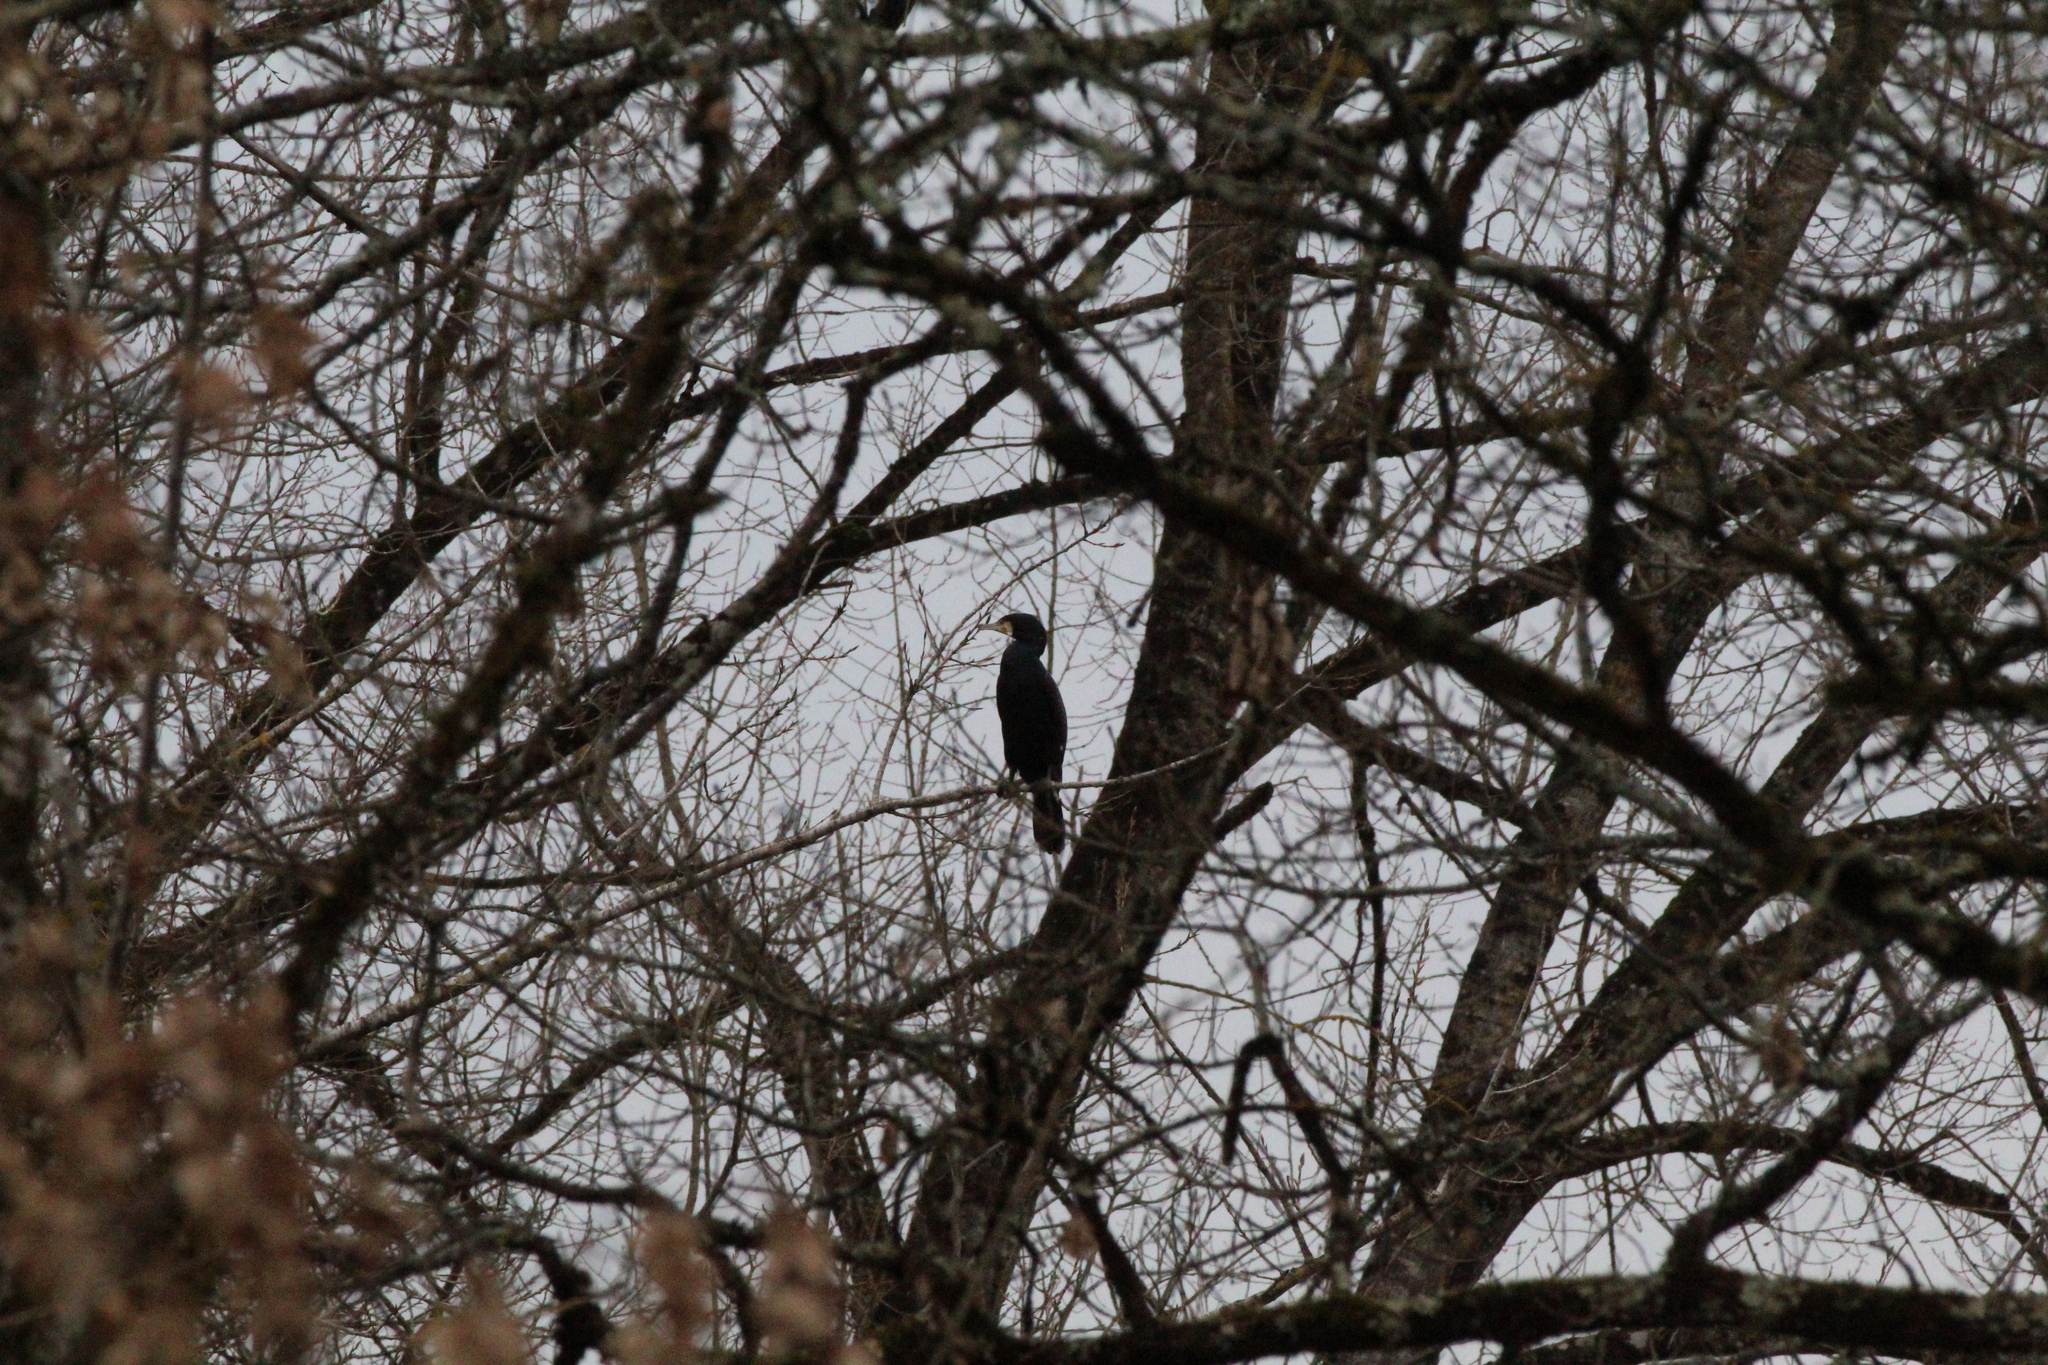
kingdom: Animalia
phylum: Chordata
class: Aves
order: Suliformes
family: Phalacrocoracidae
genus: Phalacrocorax
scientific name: Phalacrocorax carbo
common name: Great cormorant
